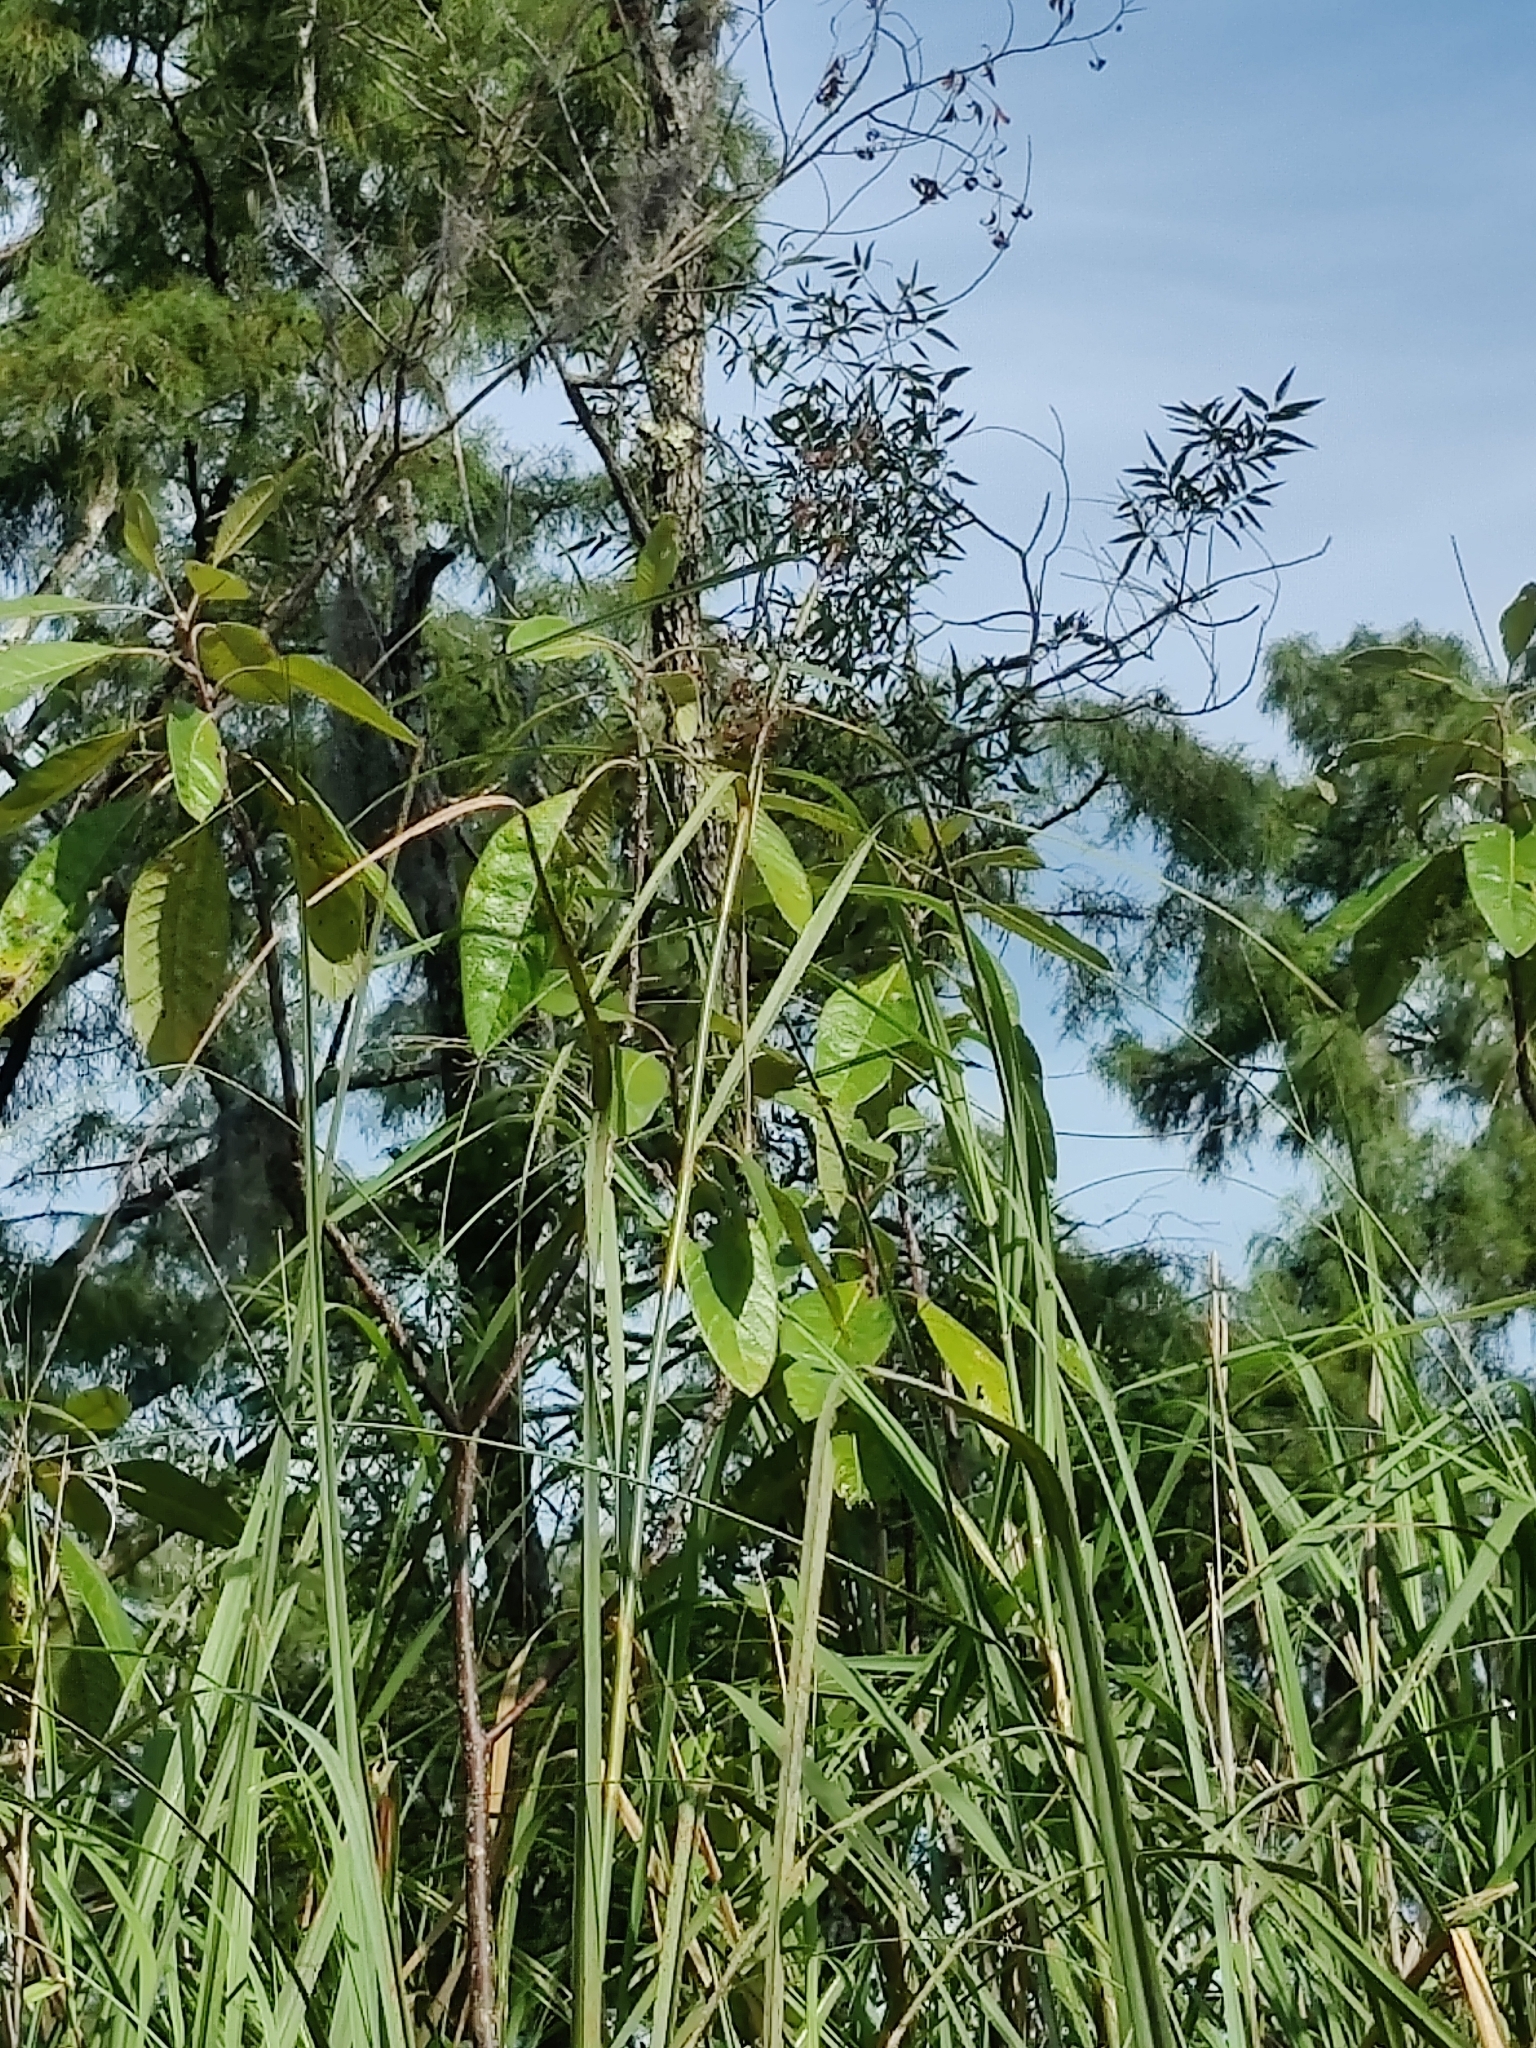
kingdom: Plantae
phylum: Tracheophyta
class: Magnoliopsida
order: Sapindales
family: Simaroubaceae
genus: Leitneria
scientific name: Leitneria floridana
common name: Corkwood
